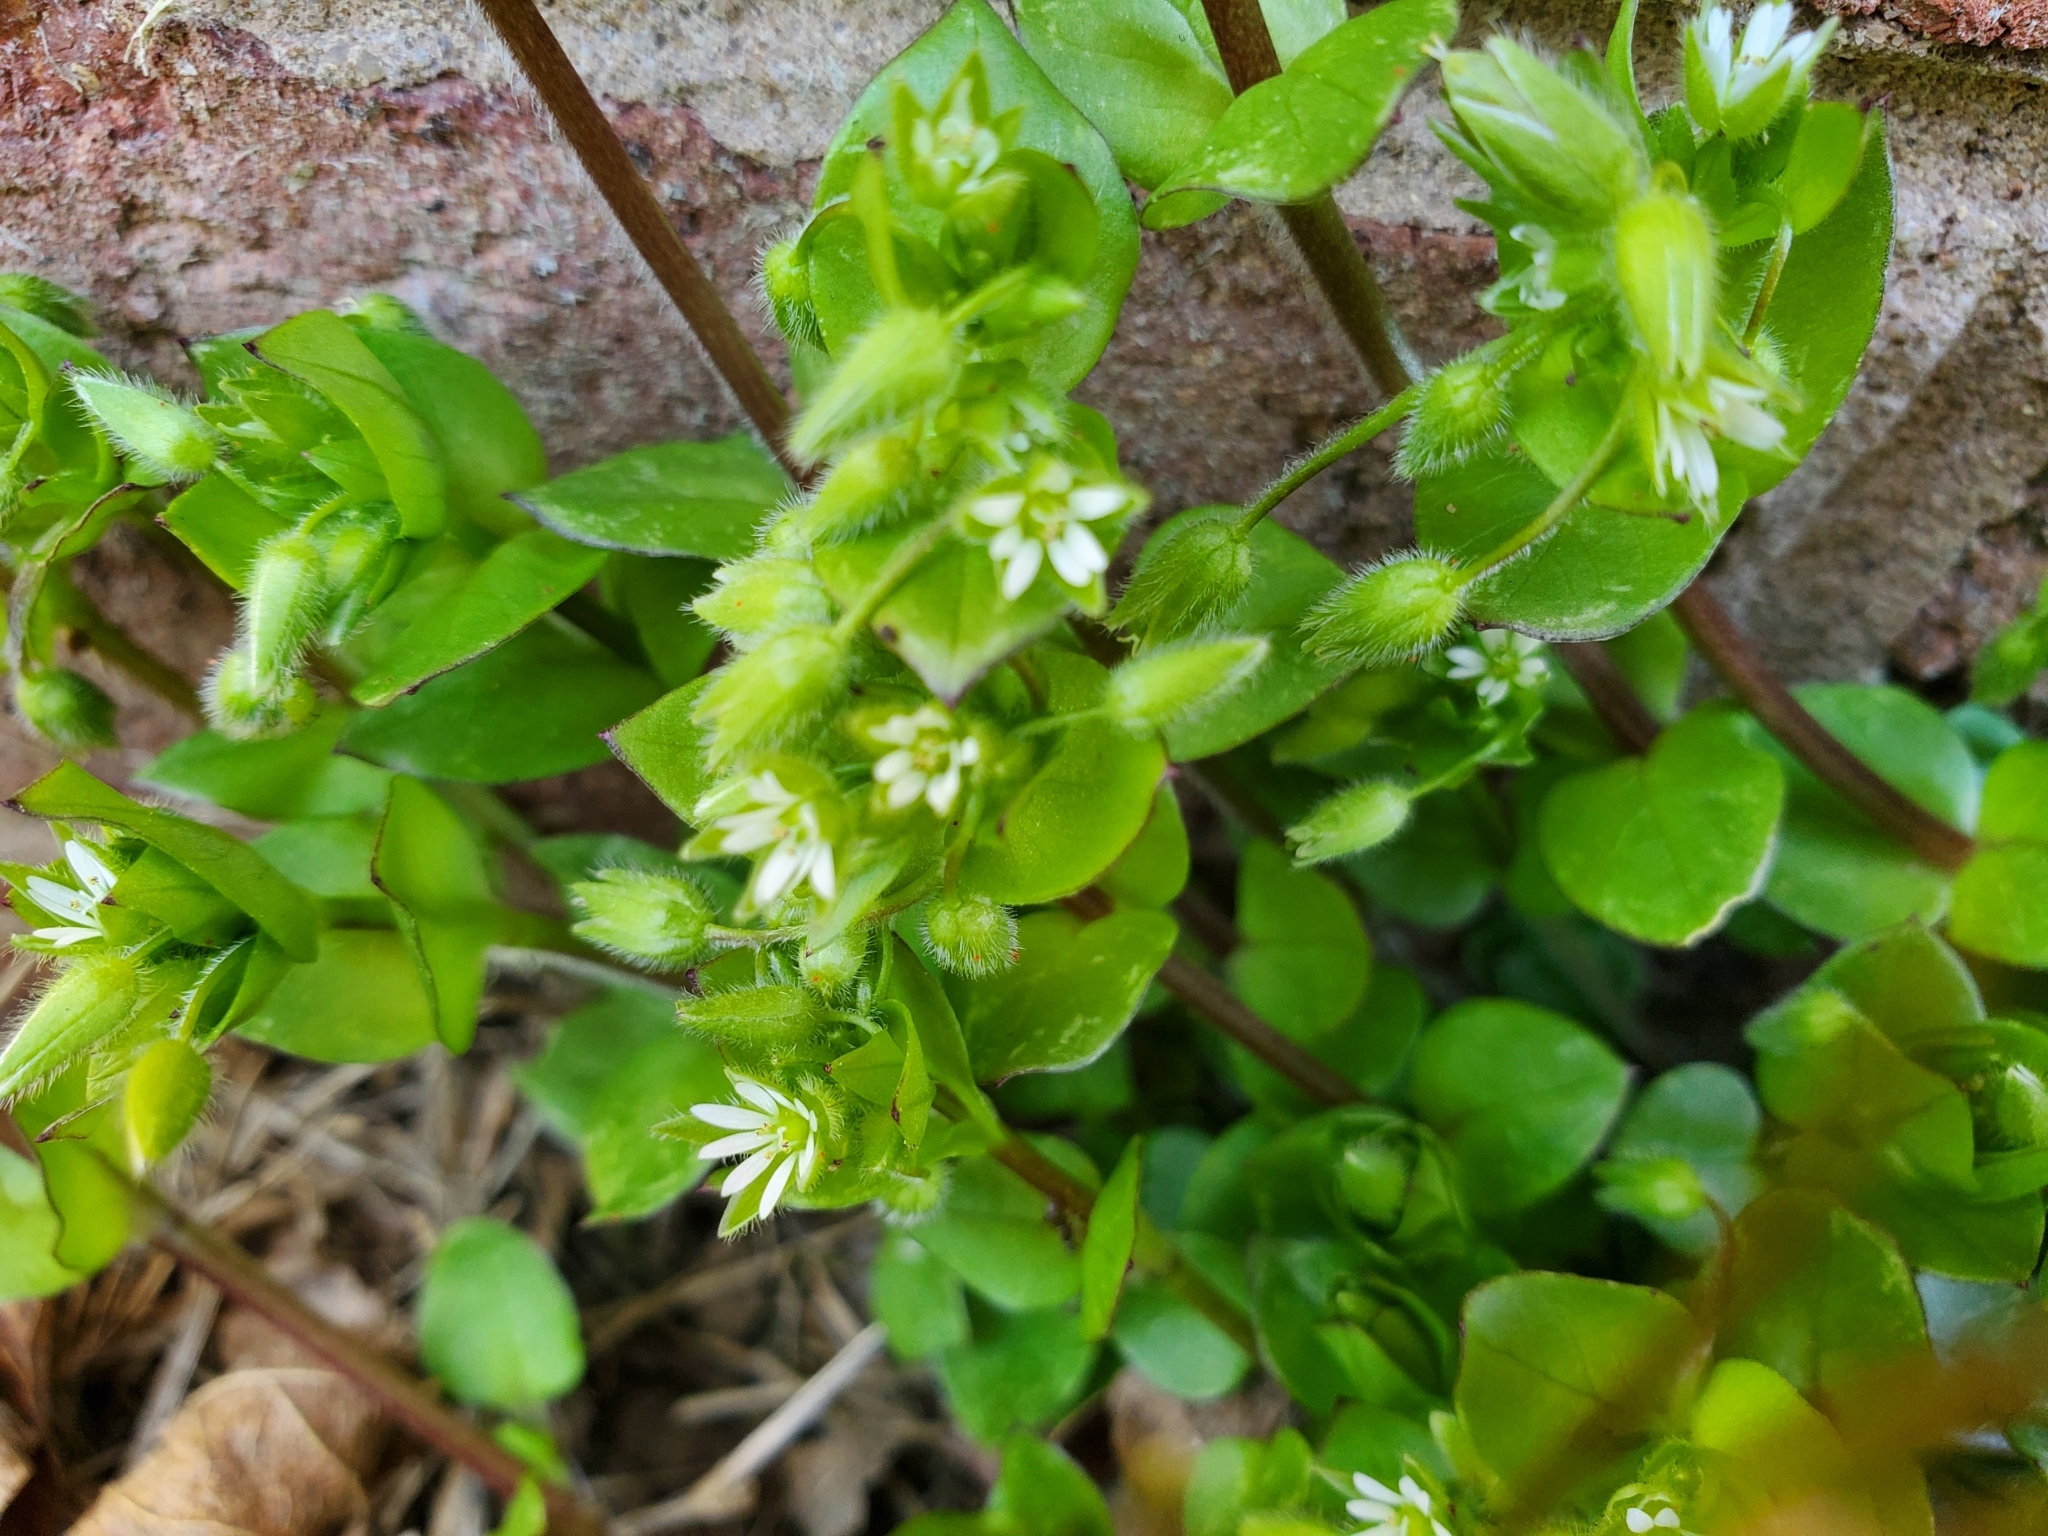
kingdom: Plantae
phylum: Tracheophyta
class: Magnoliopsida
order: Caryophyllales
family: Caryophyllaceae
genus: Stellaria
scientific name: Stellaria media
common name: Common chickweed
